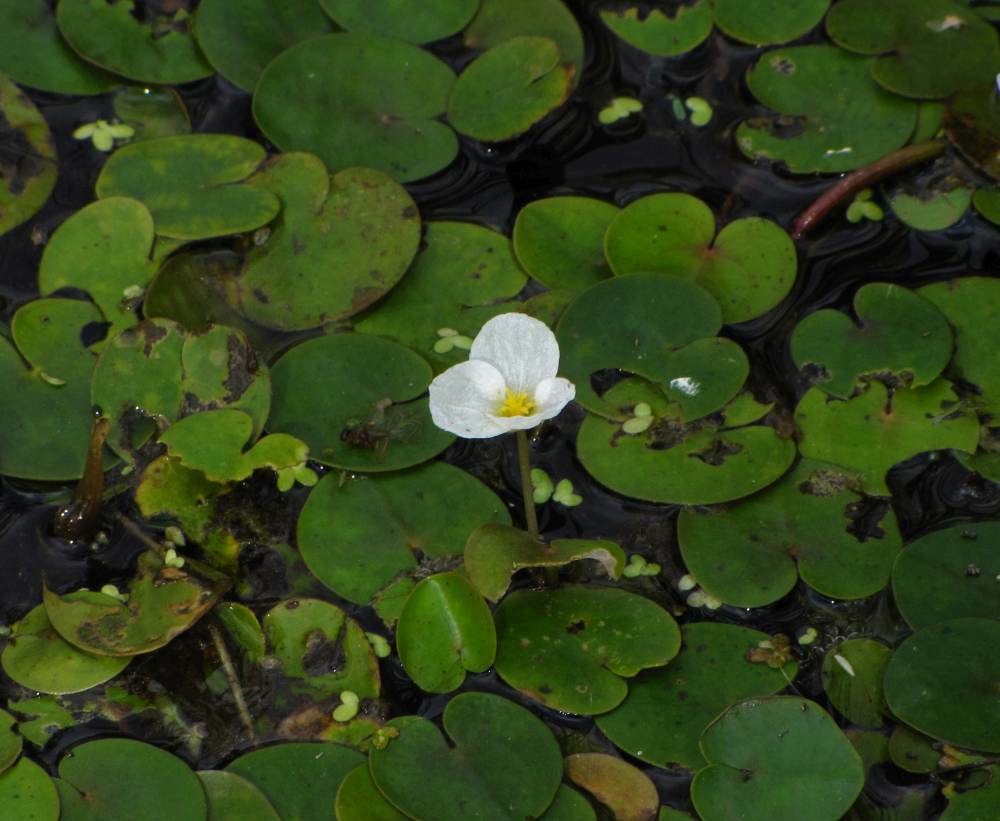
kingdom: Plantae
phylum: Tracheophyta
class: Liliopsida
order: Alismatales
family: Hydrocharitaceae
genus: Hydrocharis
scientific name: Hydrocharis morsus-ranae
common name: Frogbit
